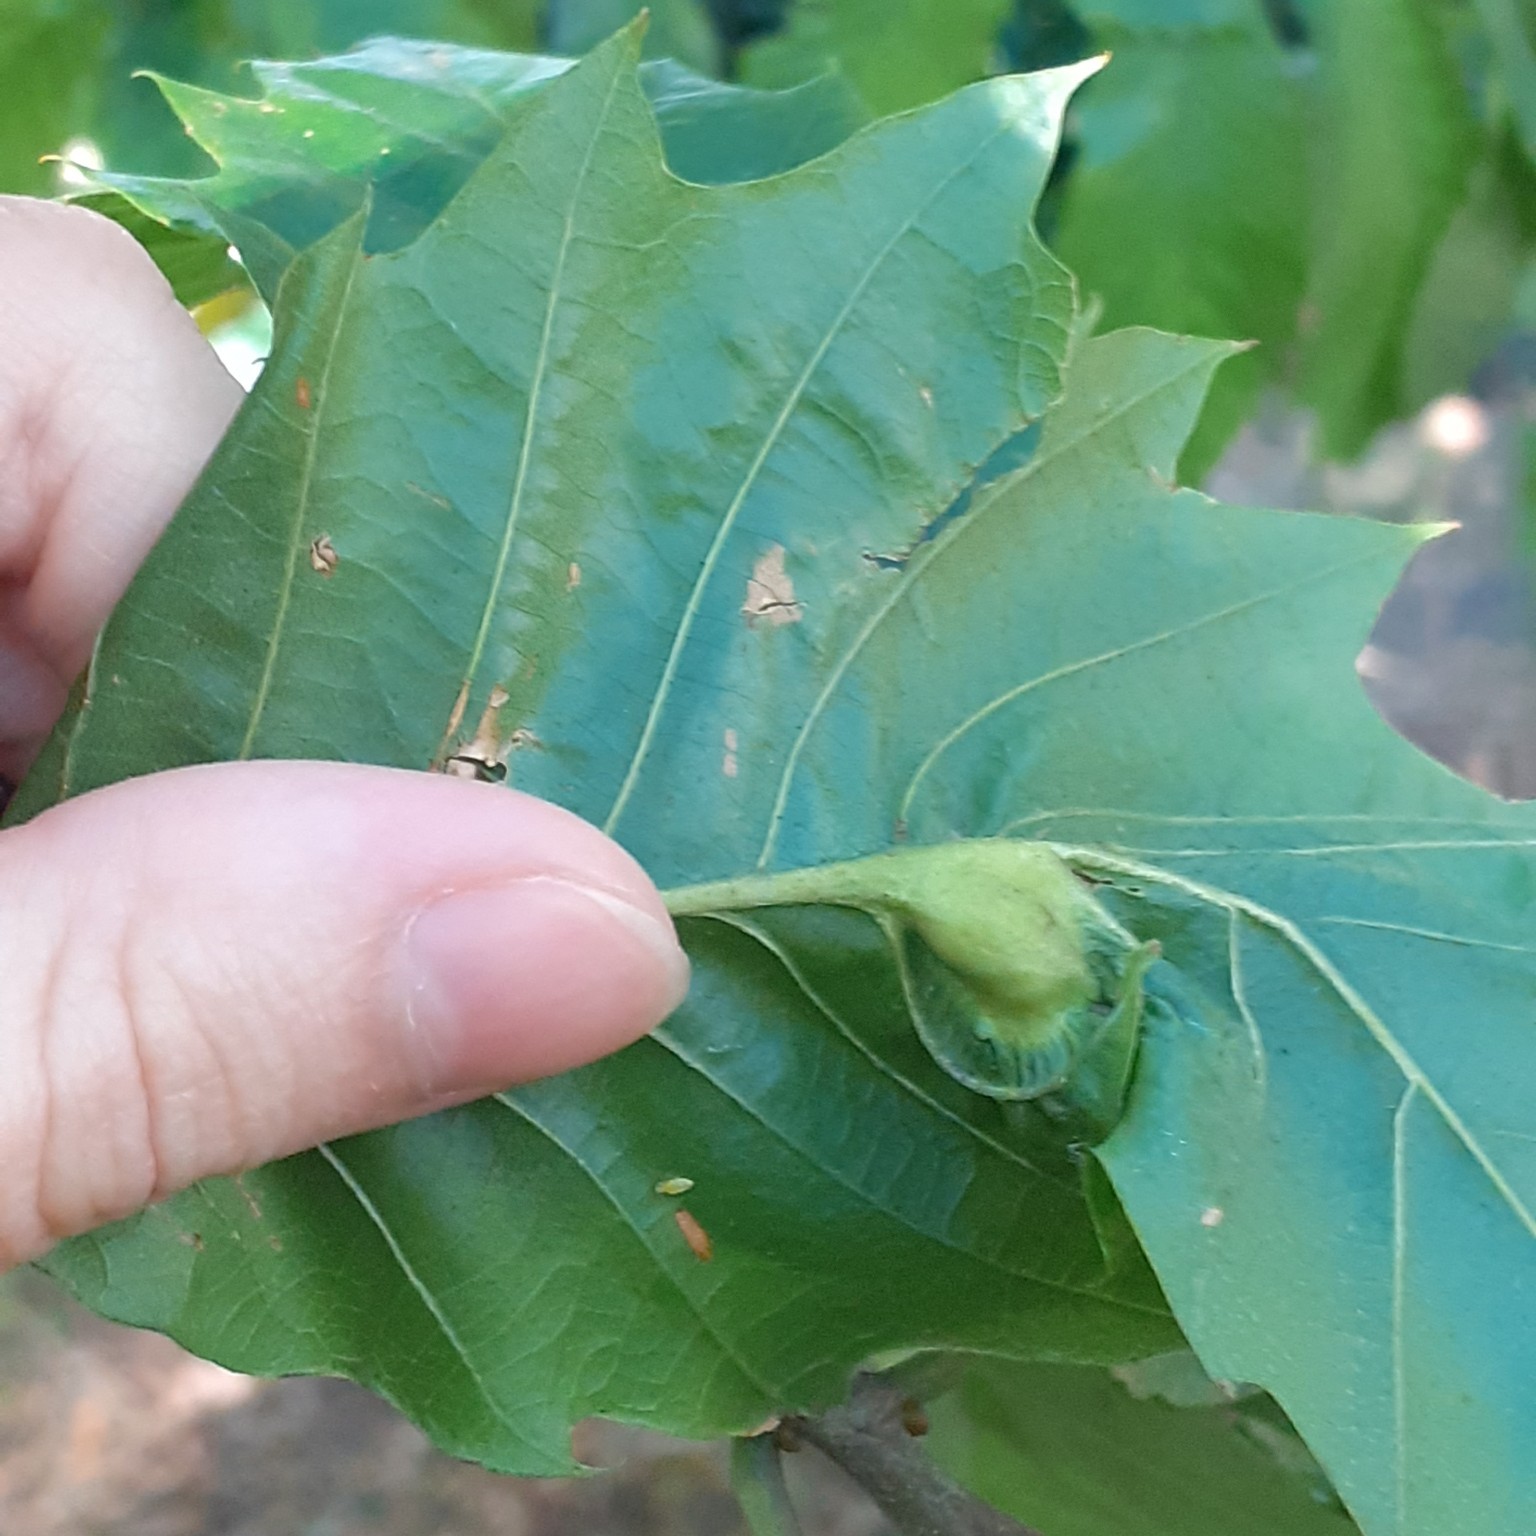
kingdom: Animalia
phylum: Arthropoda
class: Insecta
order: Hymenoptera
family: Cynipidae
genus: Dryocosmus
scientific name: Dryocosmus kuriphilus
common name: Asian chestnut gall wasp
